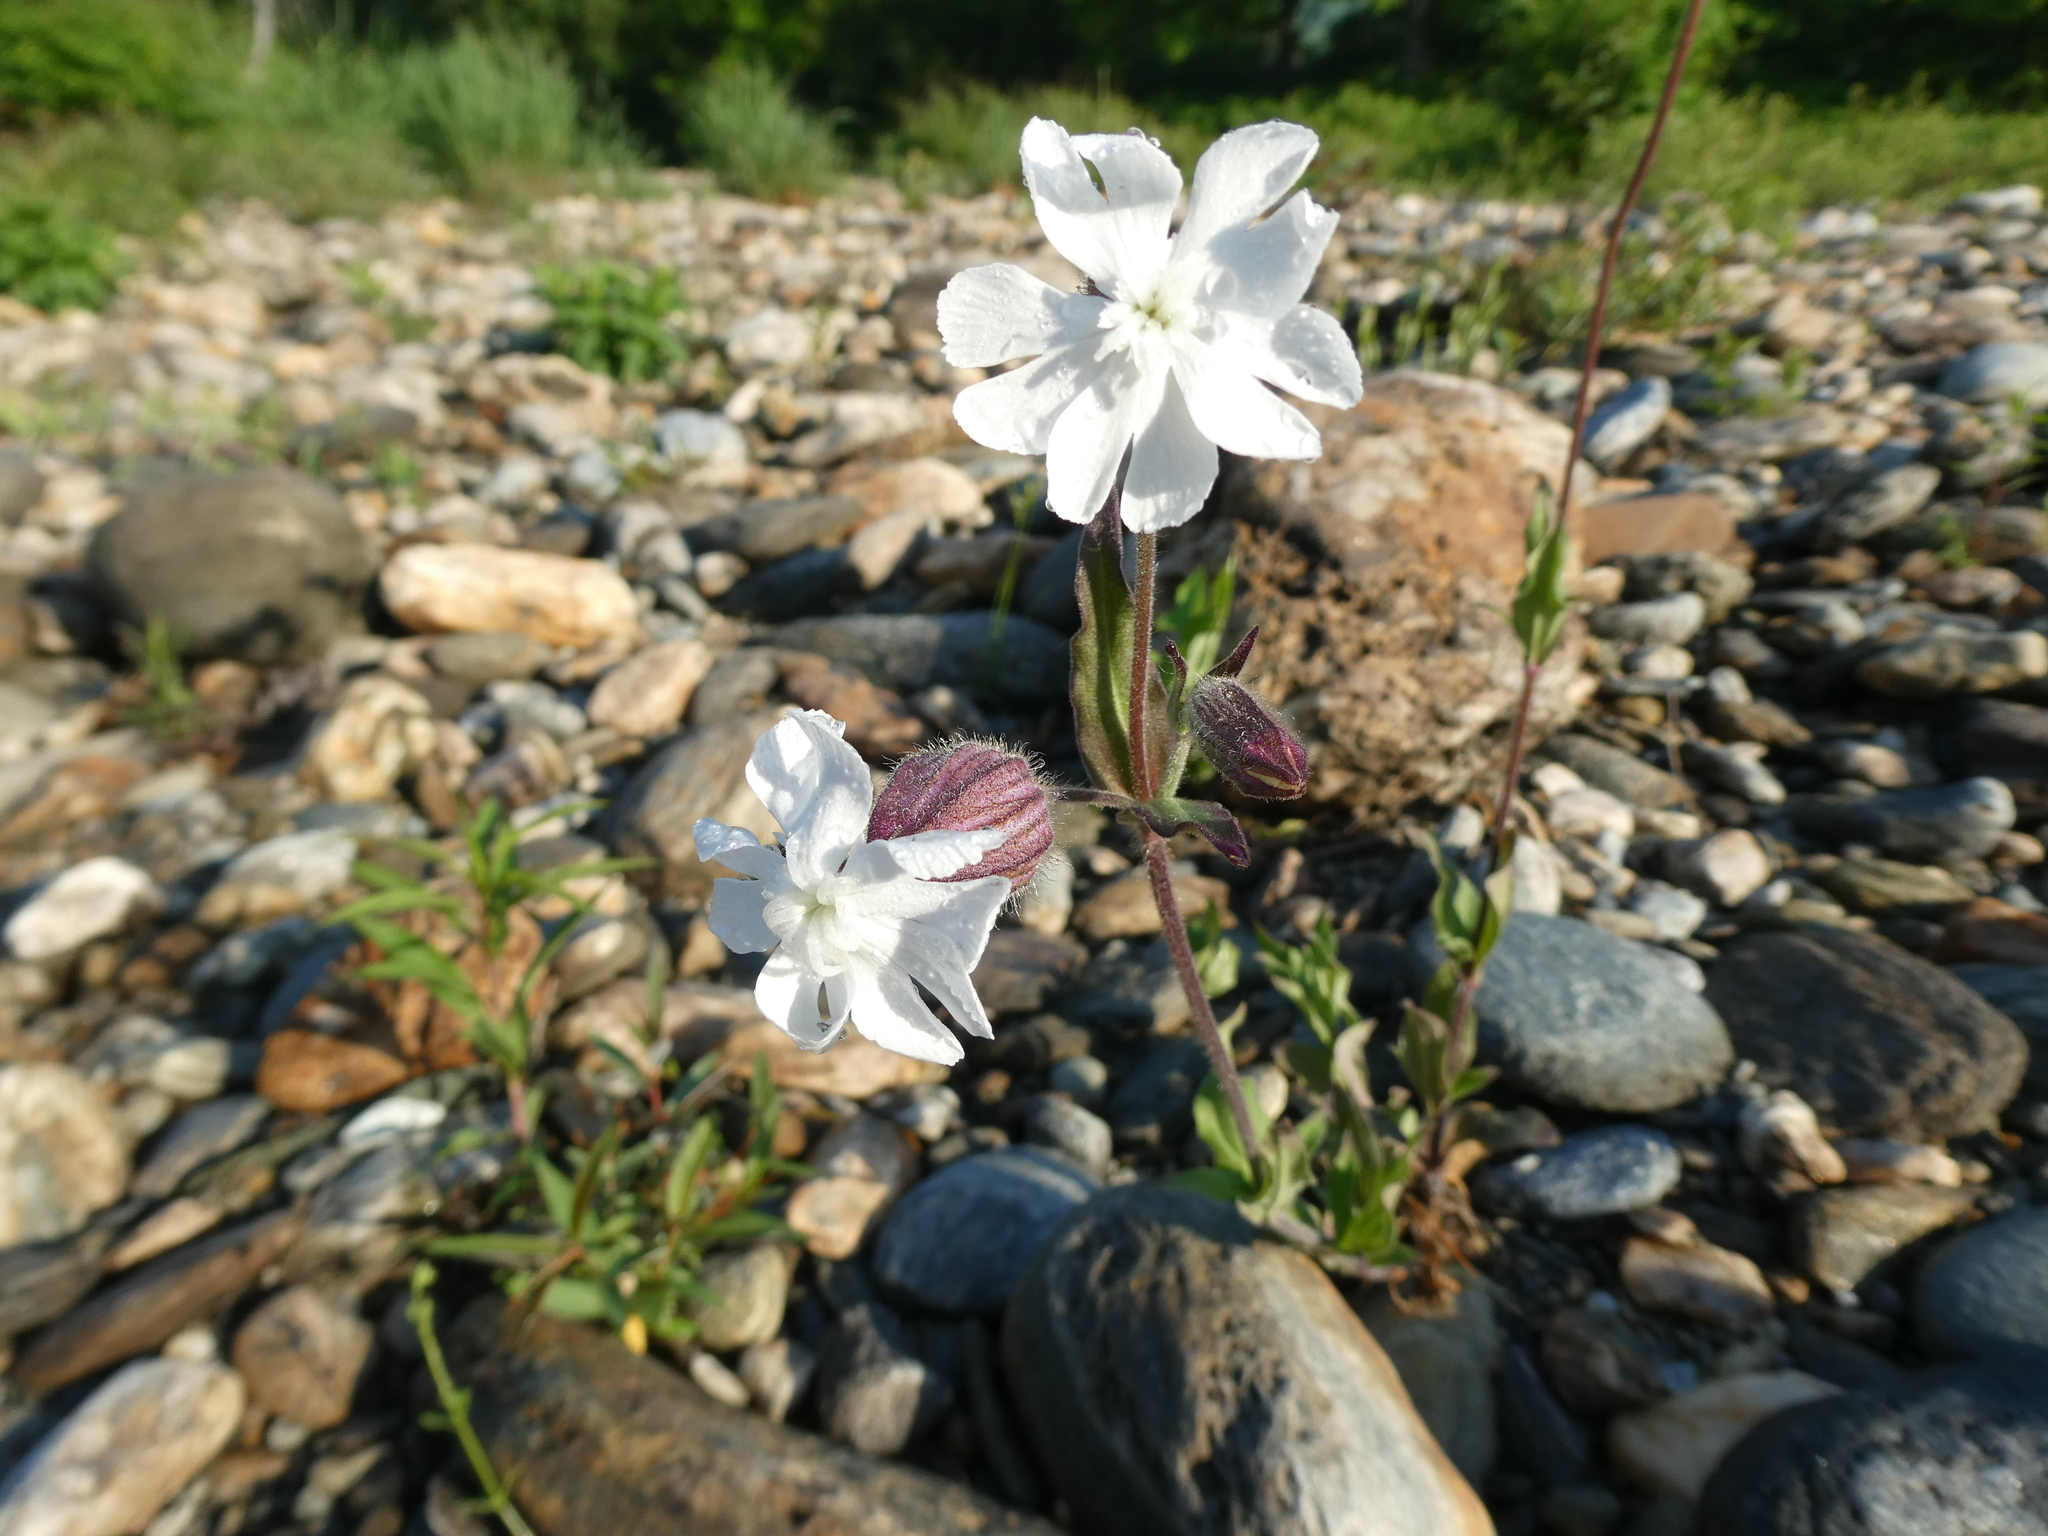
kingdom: Plantae
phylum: Tracheophyta
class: Magnoliopsida
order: Caryophyllales
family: Caryophyllaceae
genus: Silene
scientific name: Silene latifolia
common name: White campion
